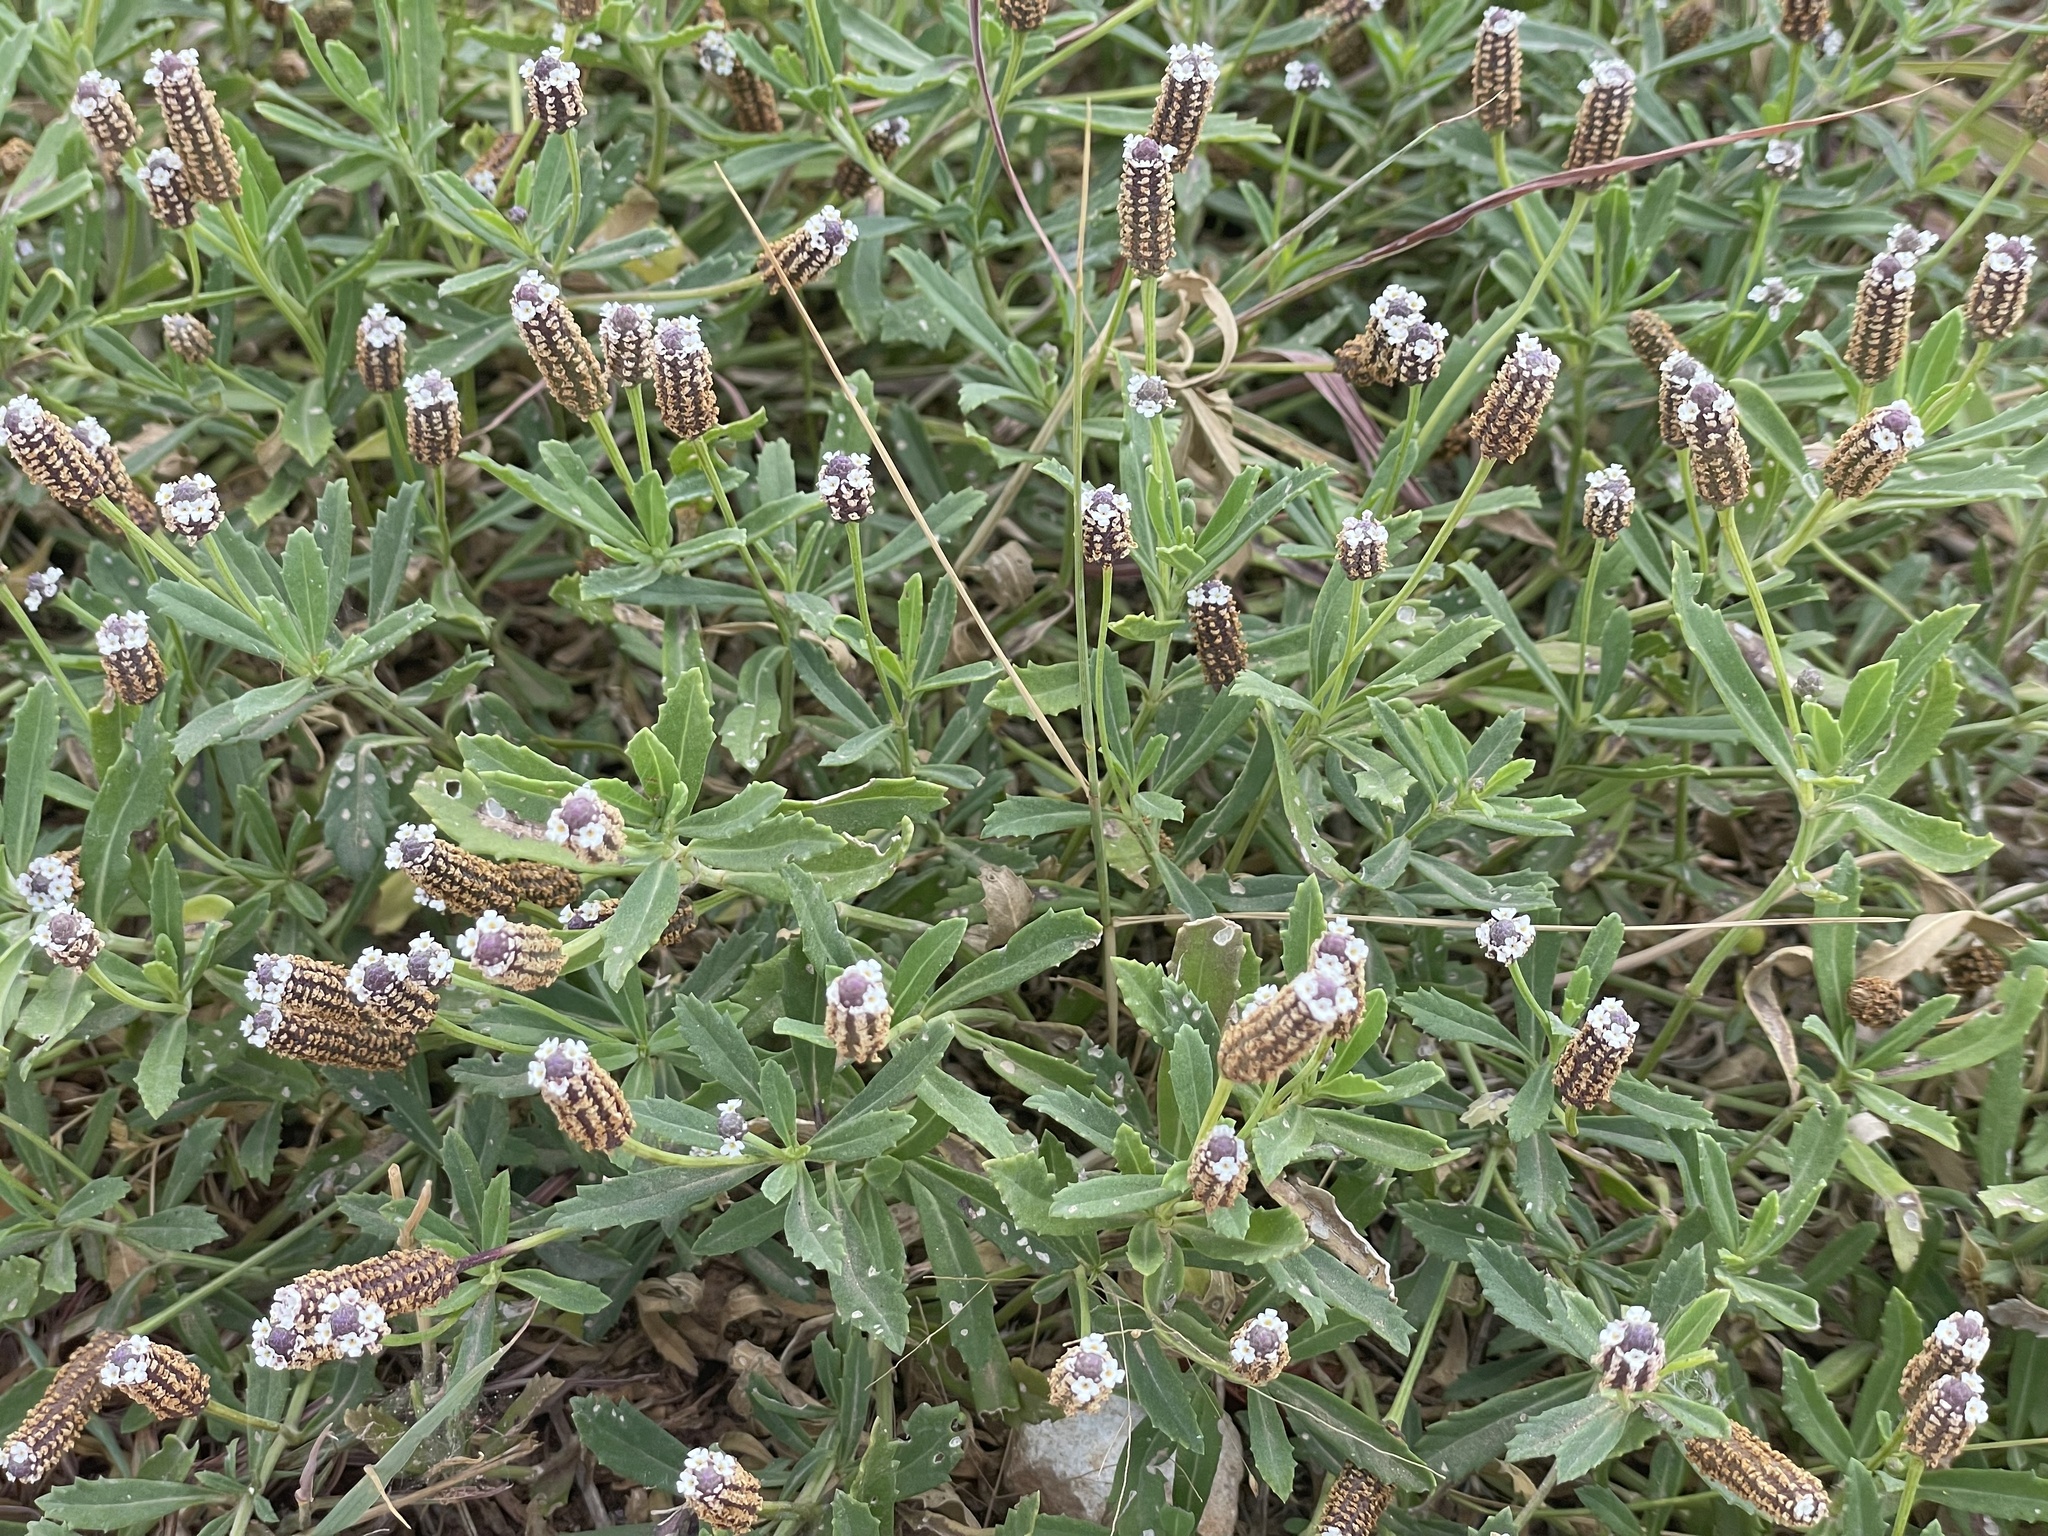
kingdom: Plantae
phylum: Tracheophyta
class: Magnoliopsida
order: Lamiales
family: Verbenaceae
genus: Phyla
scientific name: Phyla nodiflora
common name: Frogfruit
